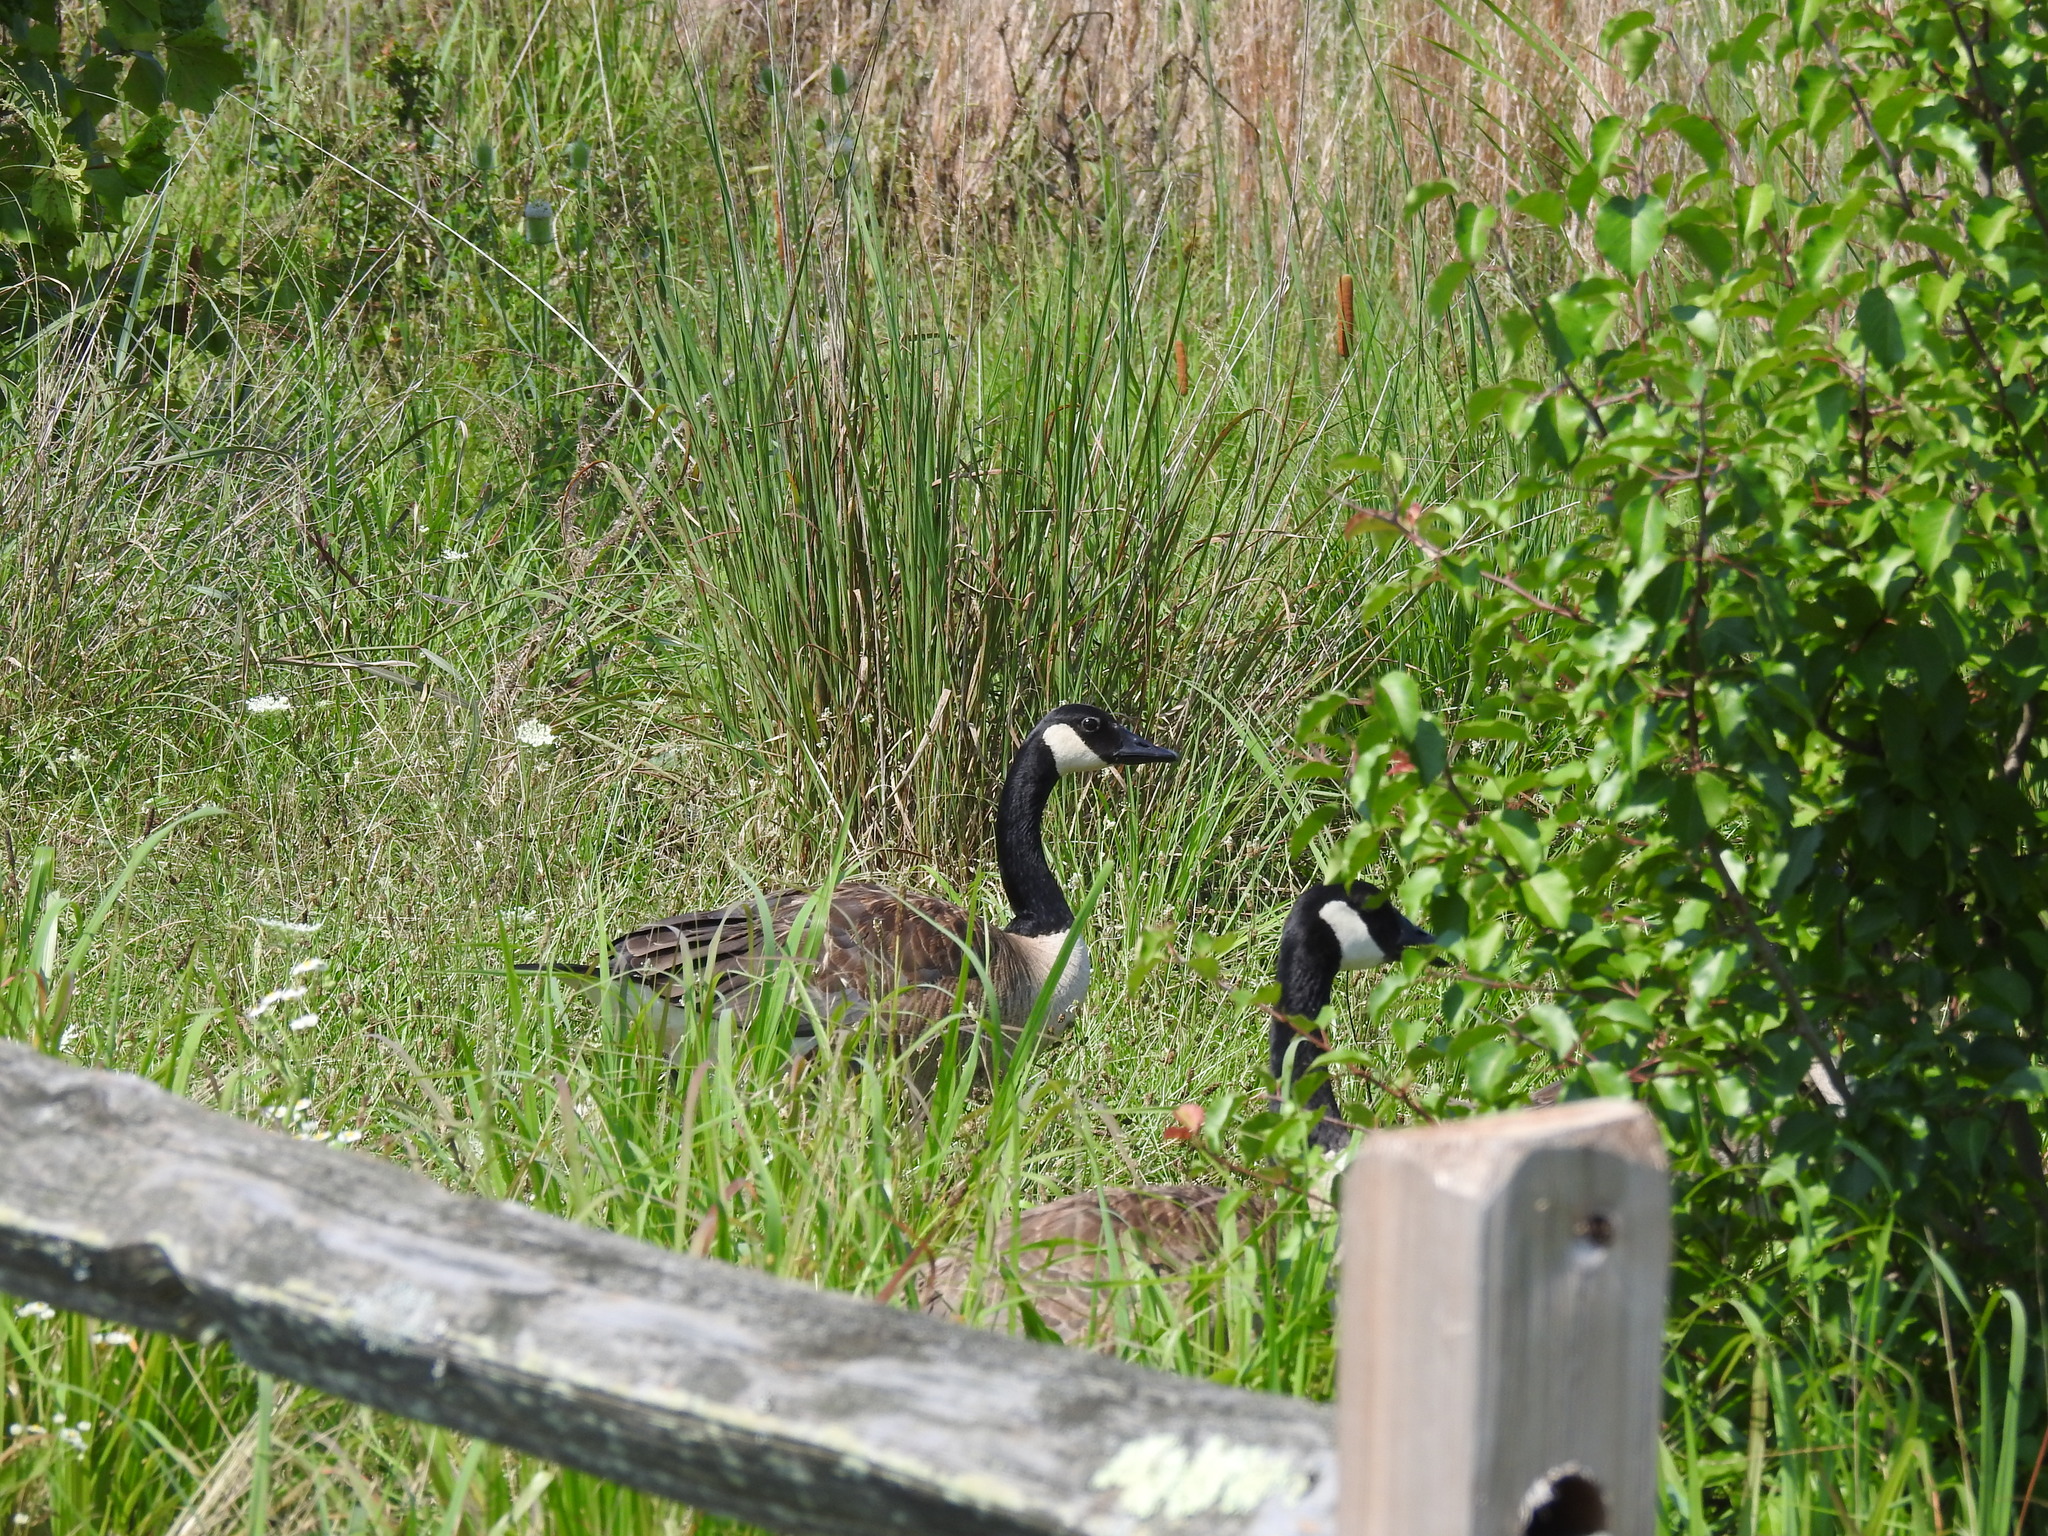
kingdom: Animalia
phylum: Chordata
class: Aves
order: Anseriformes
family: Anatidae
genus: Branta
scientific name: Branta canadensis
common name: Canada goose
